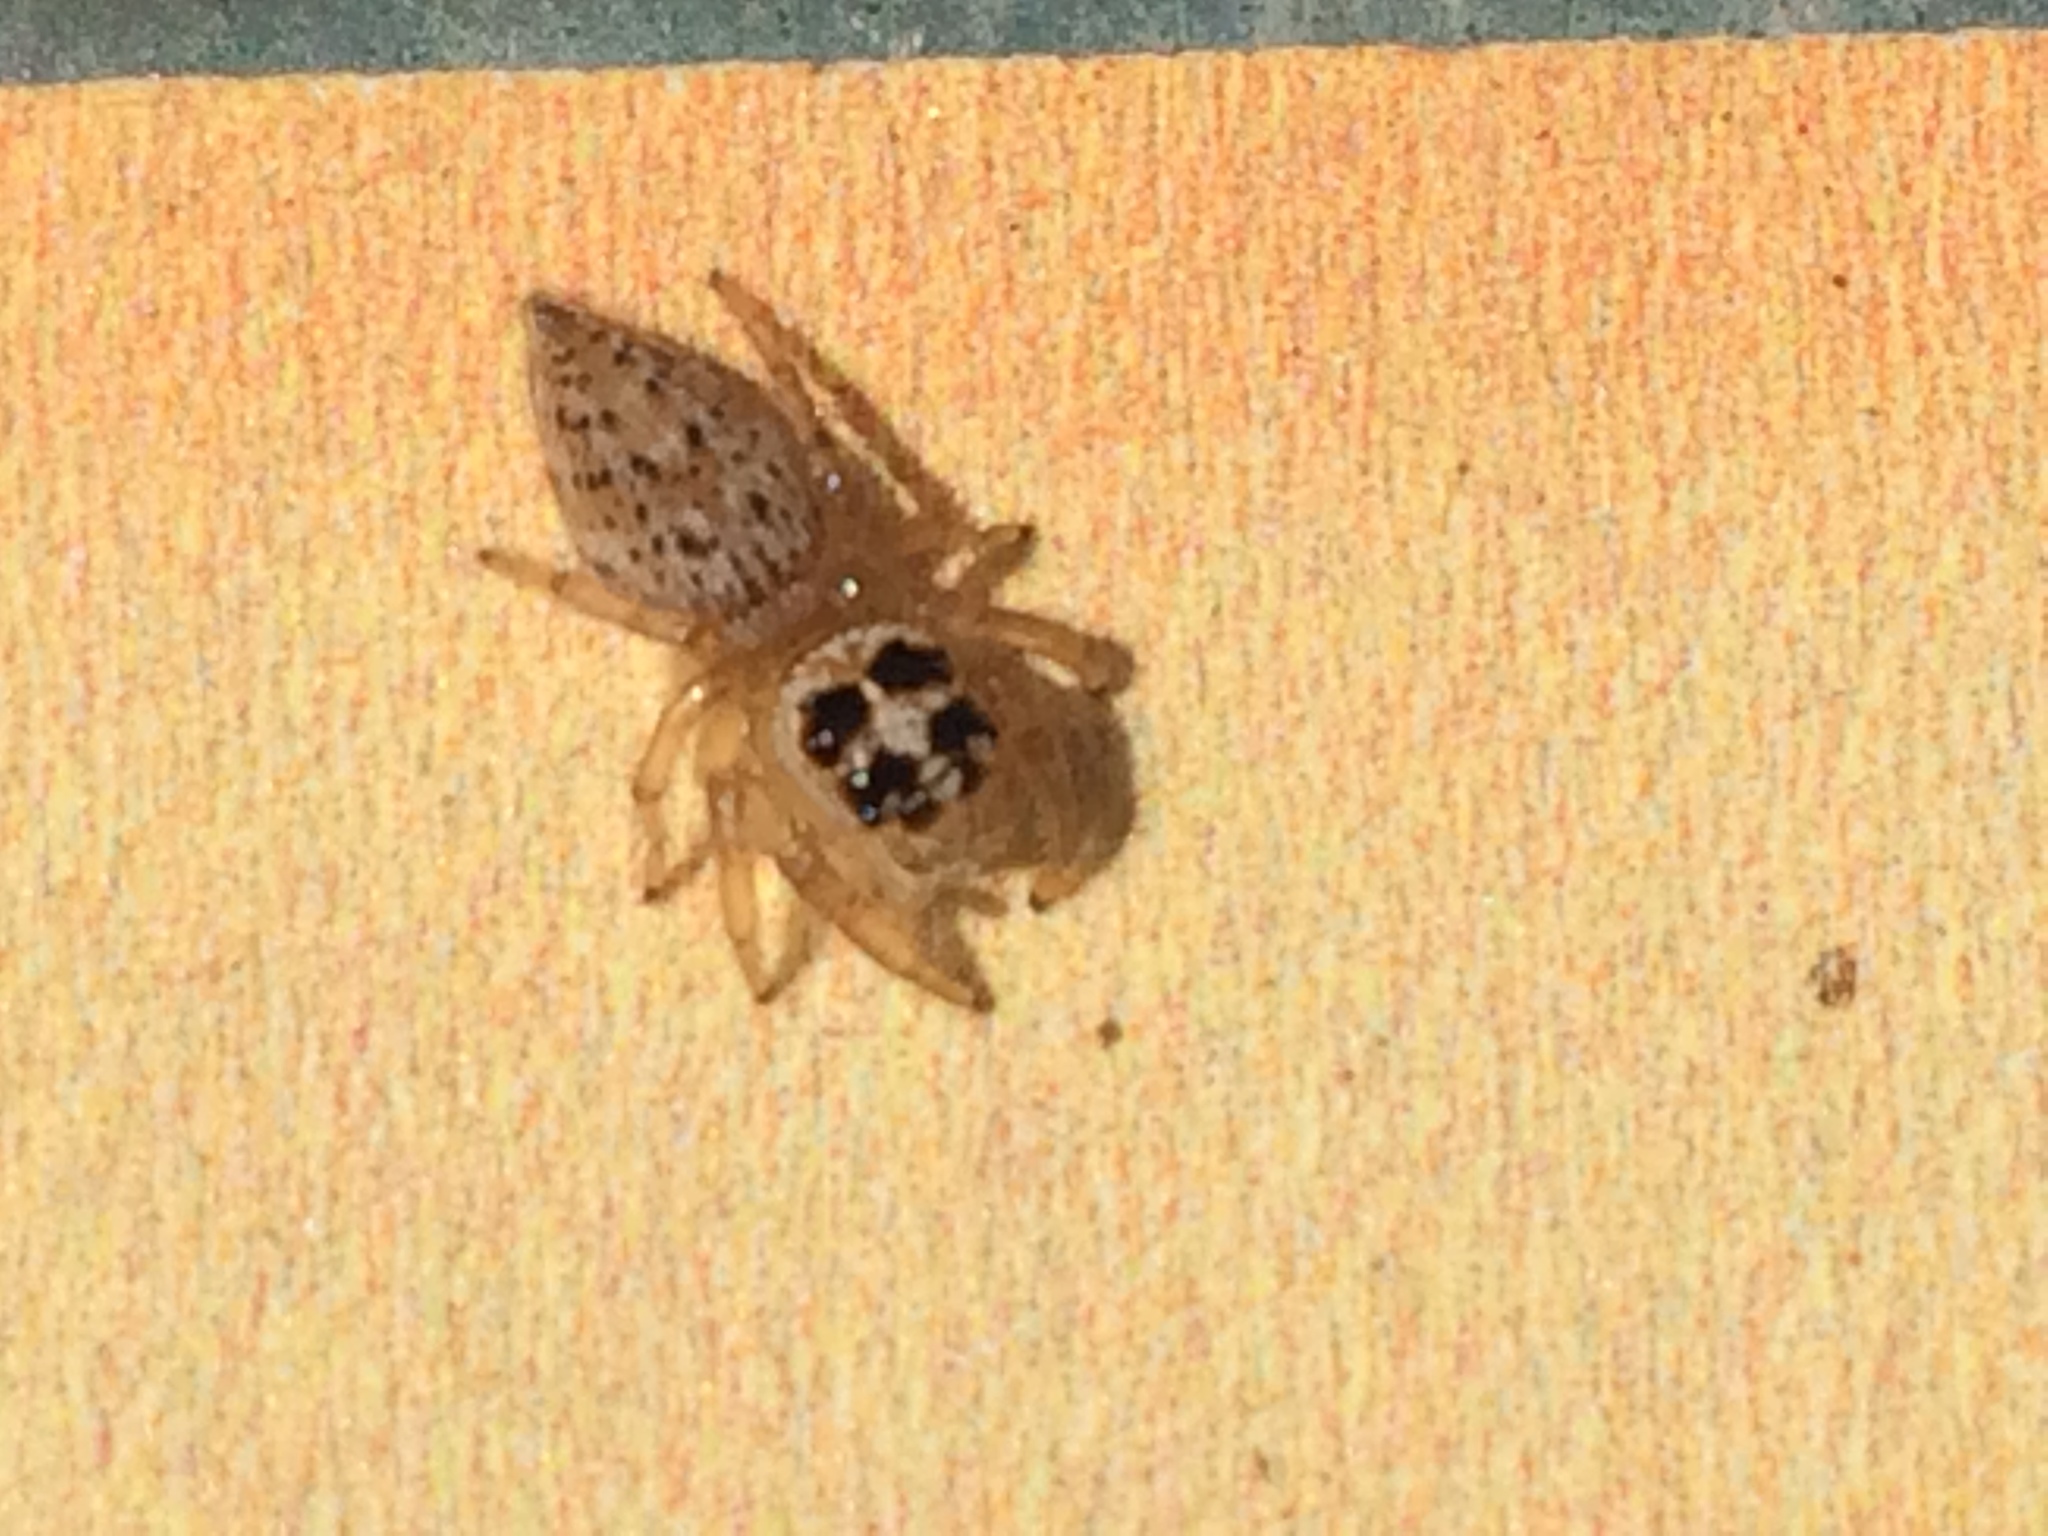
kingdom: Animalia
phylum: Arthropoda
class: Arachnida
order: Araneae
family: Salticidae
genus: Colonus
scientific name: Colonus hesperus
